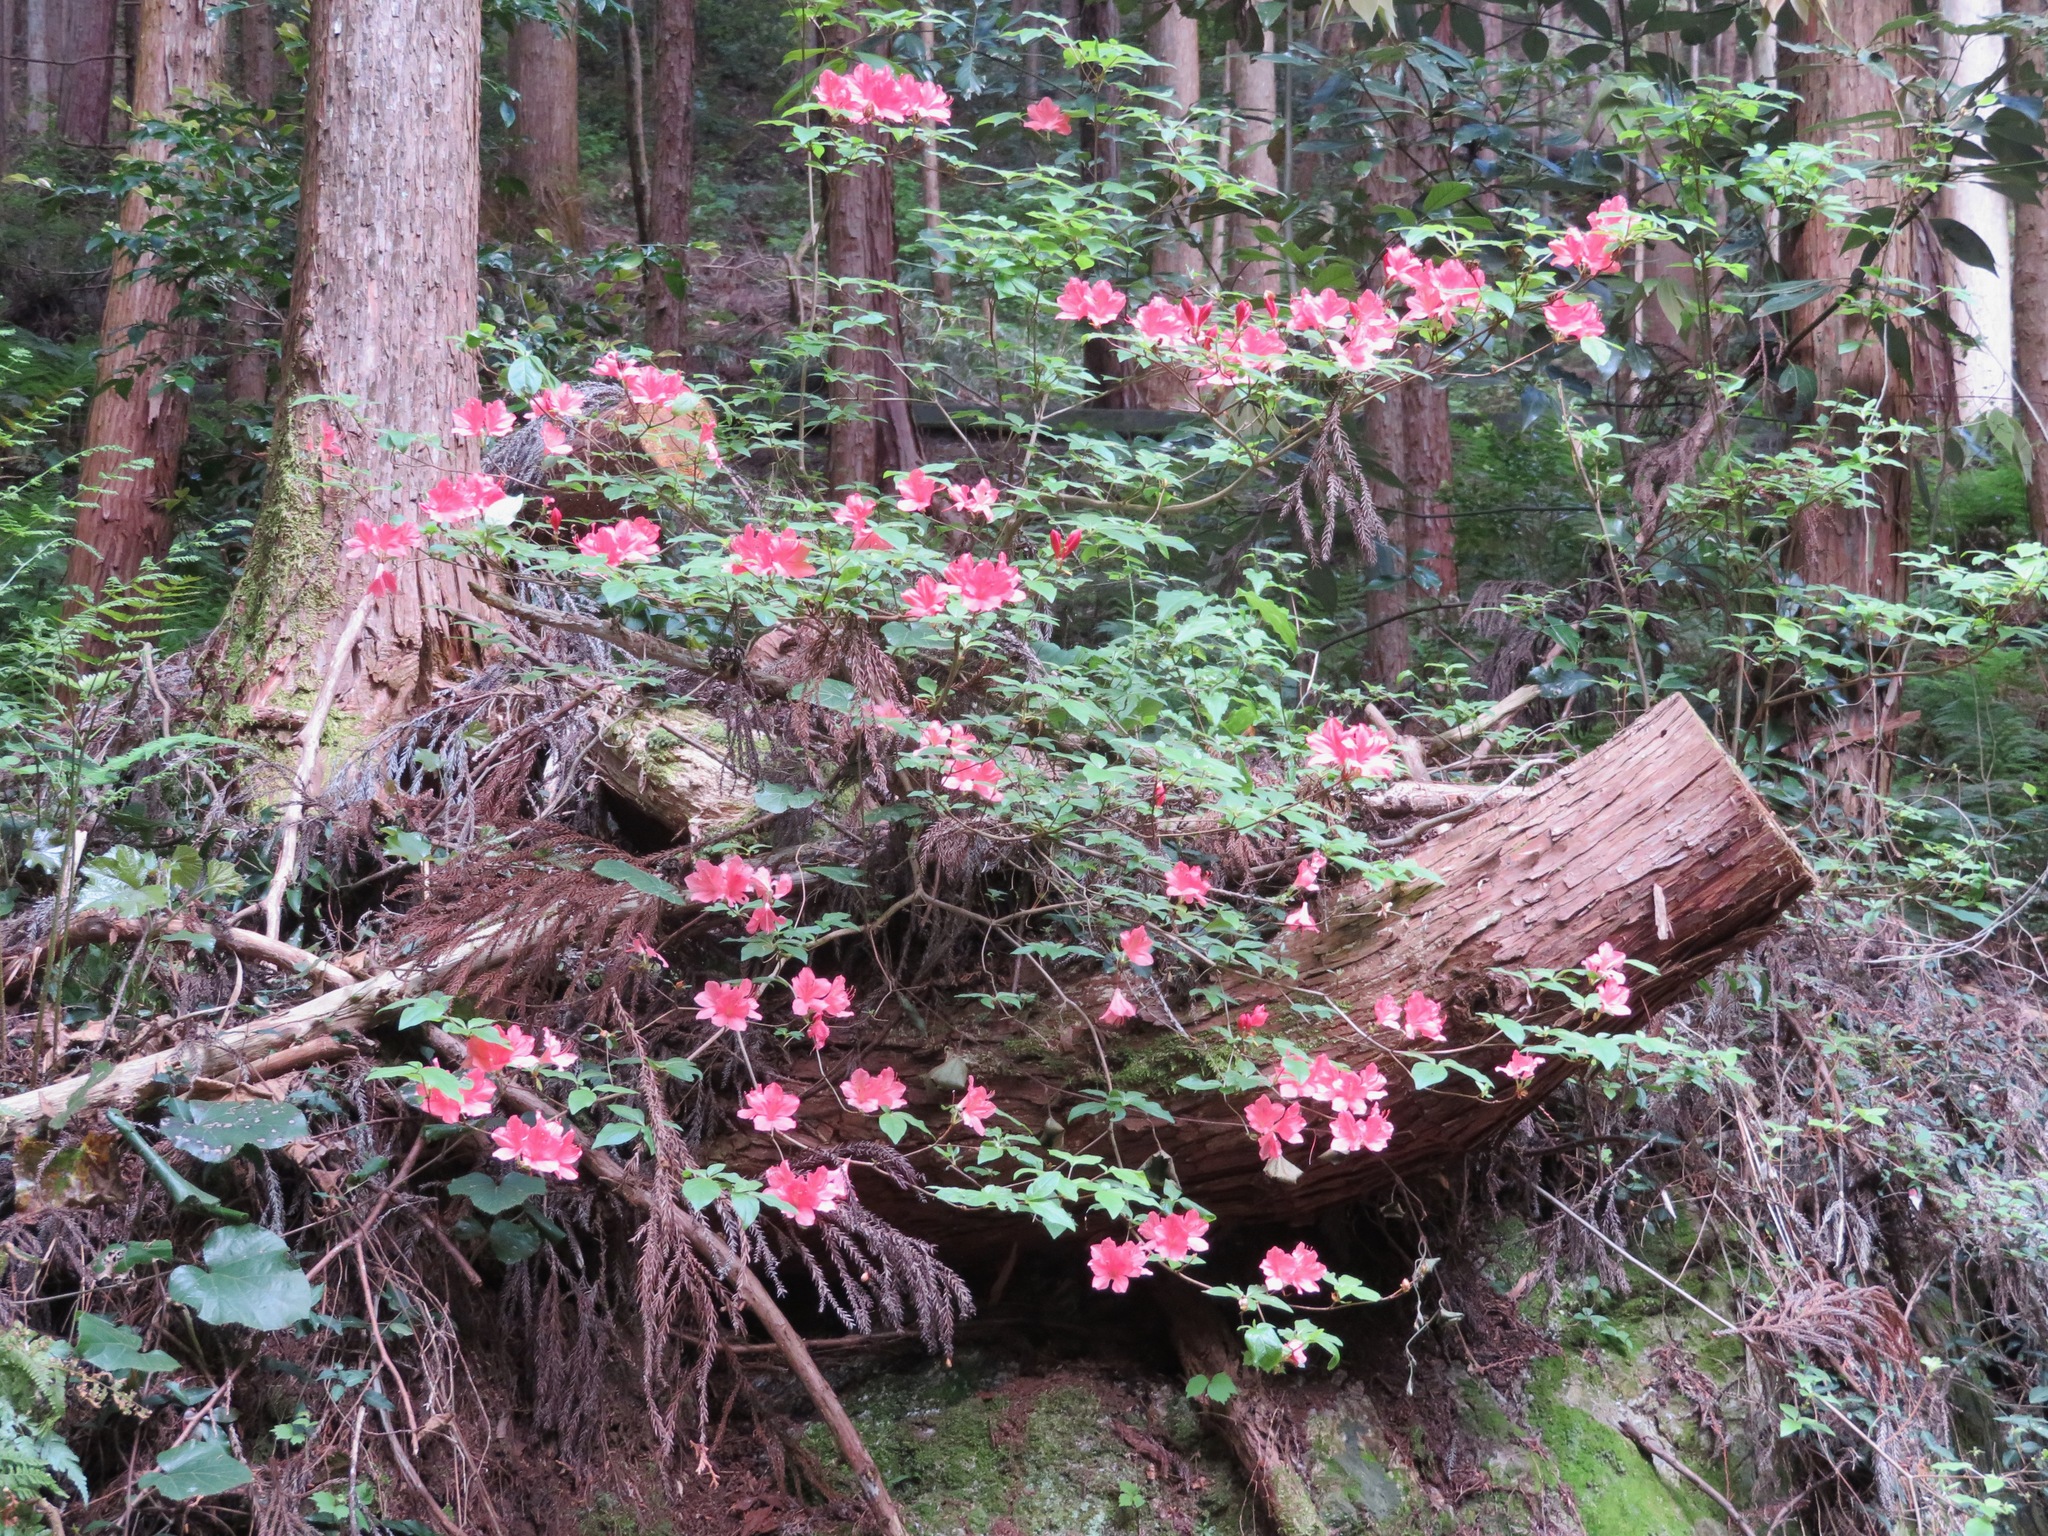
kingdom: Plantae
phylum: Tracheophyta
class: Magnoliopsida
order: Ericales
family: Ericaceae
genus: Rhododendron
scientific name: Rhododendron kaempferi
